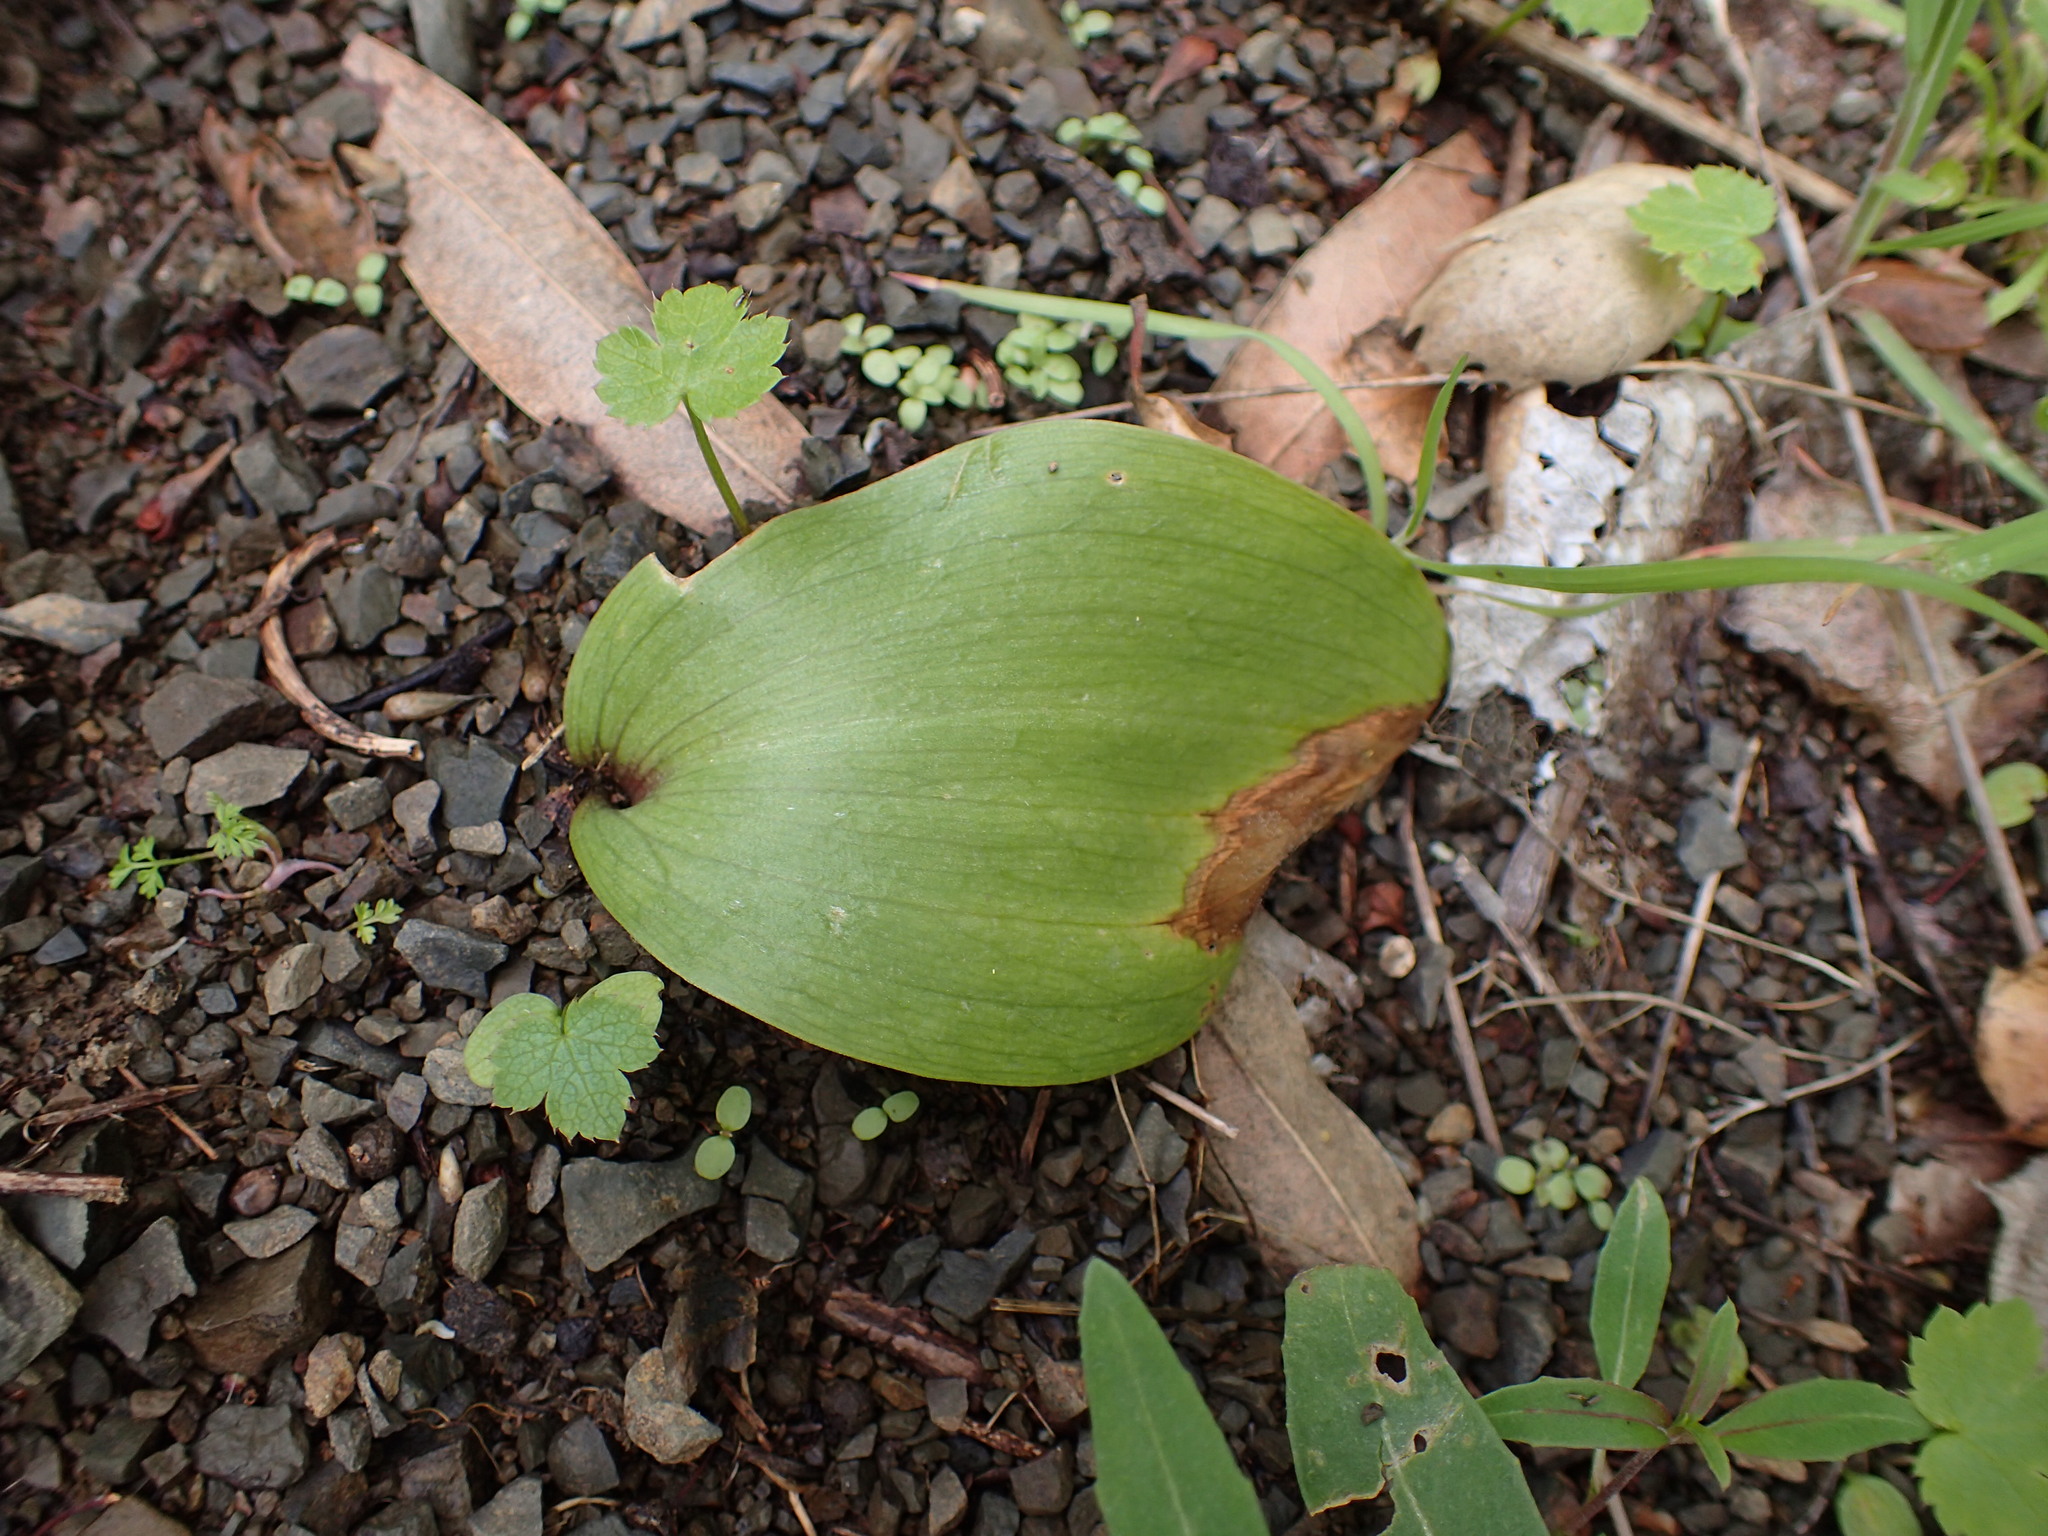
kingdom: Plantae
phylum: Tracheophyta
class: Liliopsida
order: Liliales
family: Liliaceae
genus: Fritillaria
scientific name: Fritillaria ojaiensis
